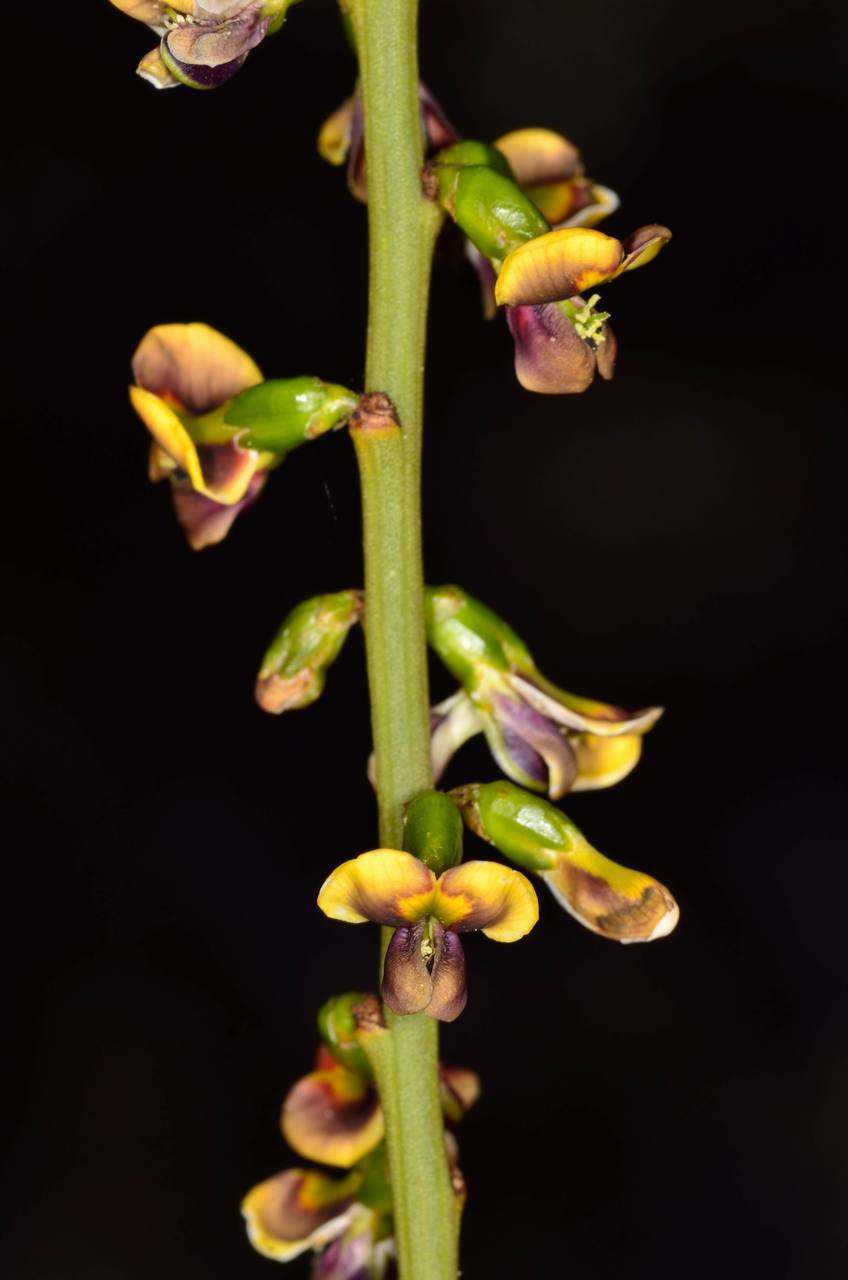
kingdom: Plantae
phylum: Tracheophyta
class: Magnoliopsida
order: Fabales
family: Fabaceae
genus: Templetonia
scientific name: Templetonia egena
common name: Desert broombush
